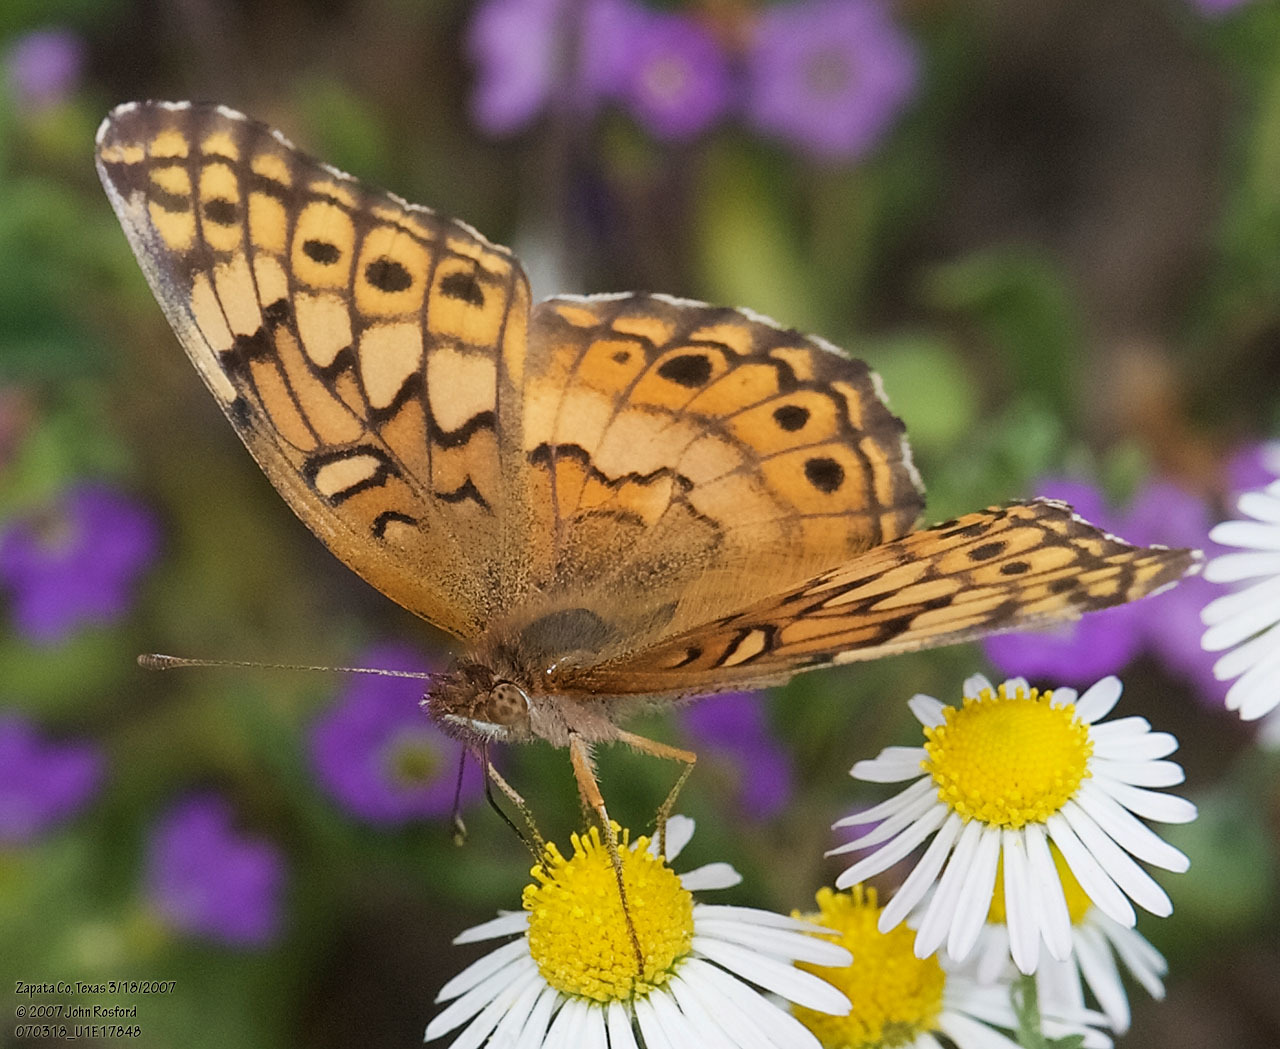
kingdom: Animalia
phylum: Arthropoda
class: Insecta
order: Lepidoptera
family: Nymphalidae
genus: Euptoieta
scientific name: Euptoieta claudia
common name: Variegated fritillary
